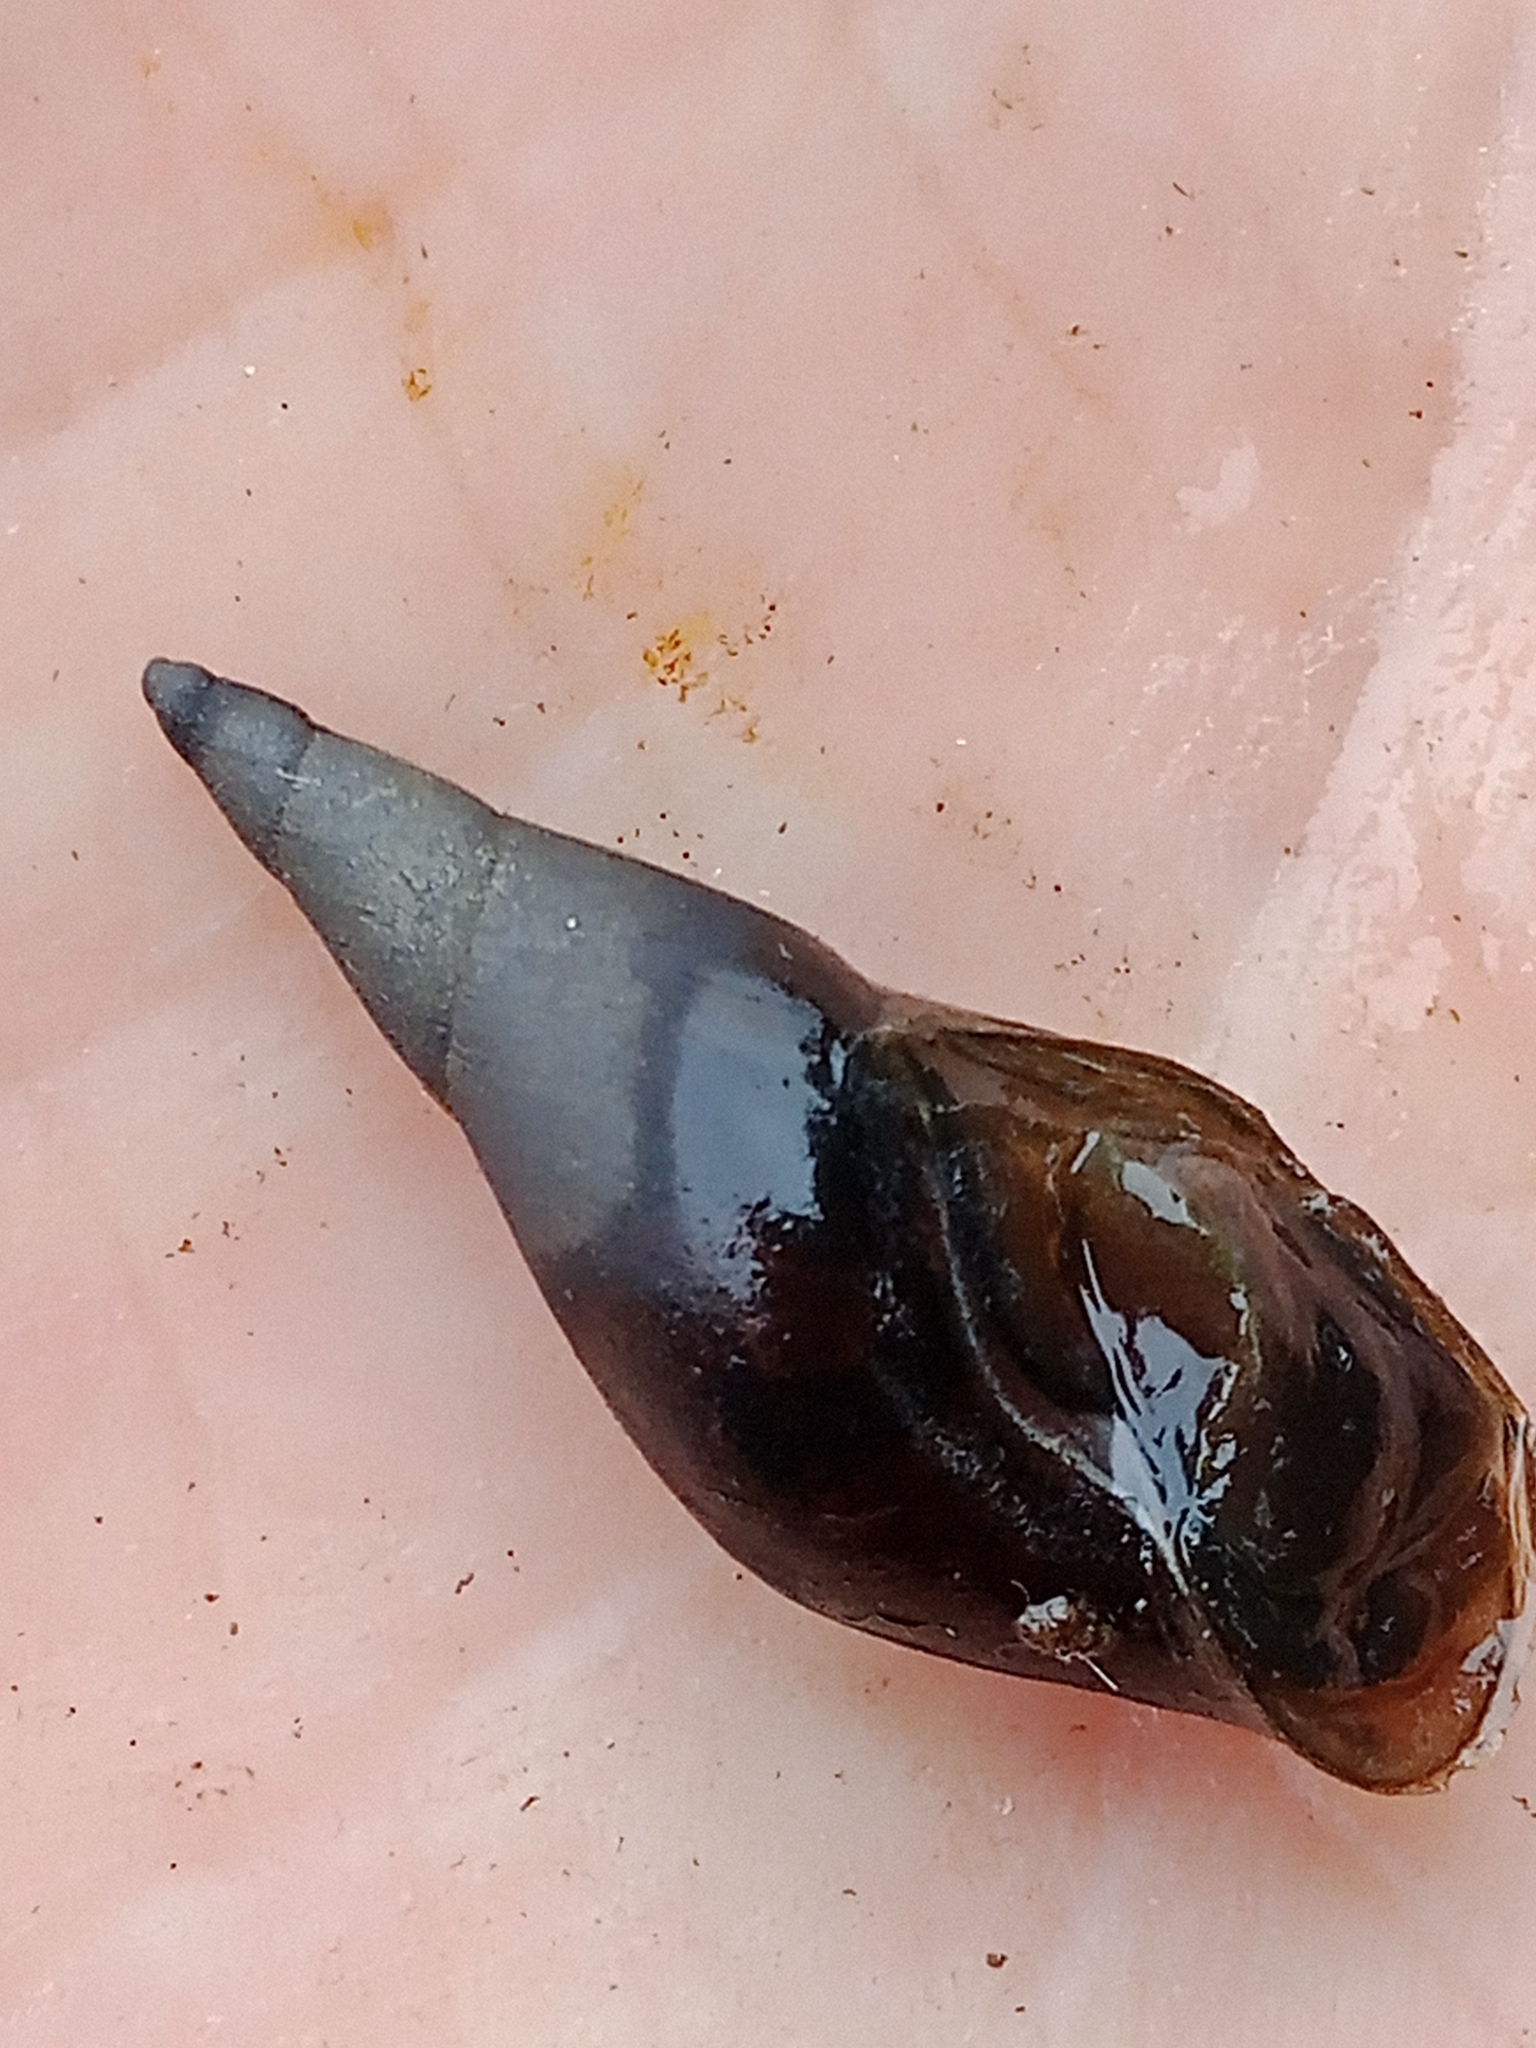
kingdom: Animalia
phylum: Mollusca
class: Gastropoda
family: Lymnaeidae
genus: Lymnaea
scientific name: Lymnaea stagnalis
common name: Great pond snail
